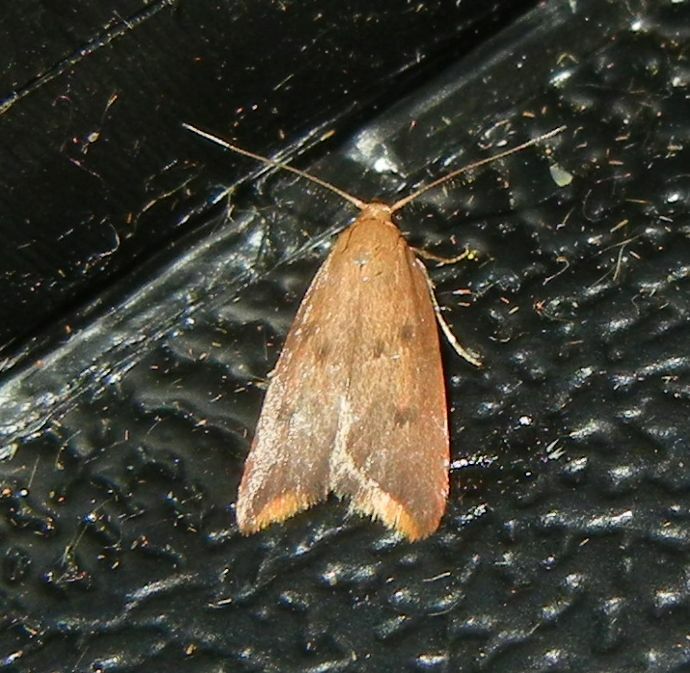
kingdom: Animalia
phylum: Arthropoda
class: Insecta
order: Lepidoptera
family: Oecophoridae
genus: Tachystola
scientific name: Tachystola acroxantha
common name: Ruddy streak
